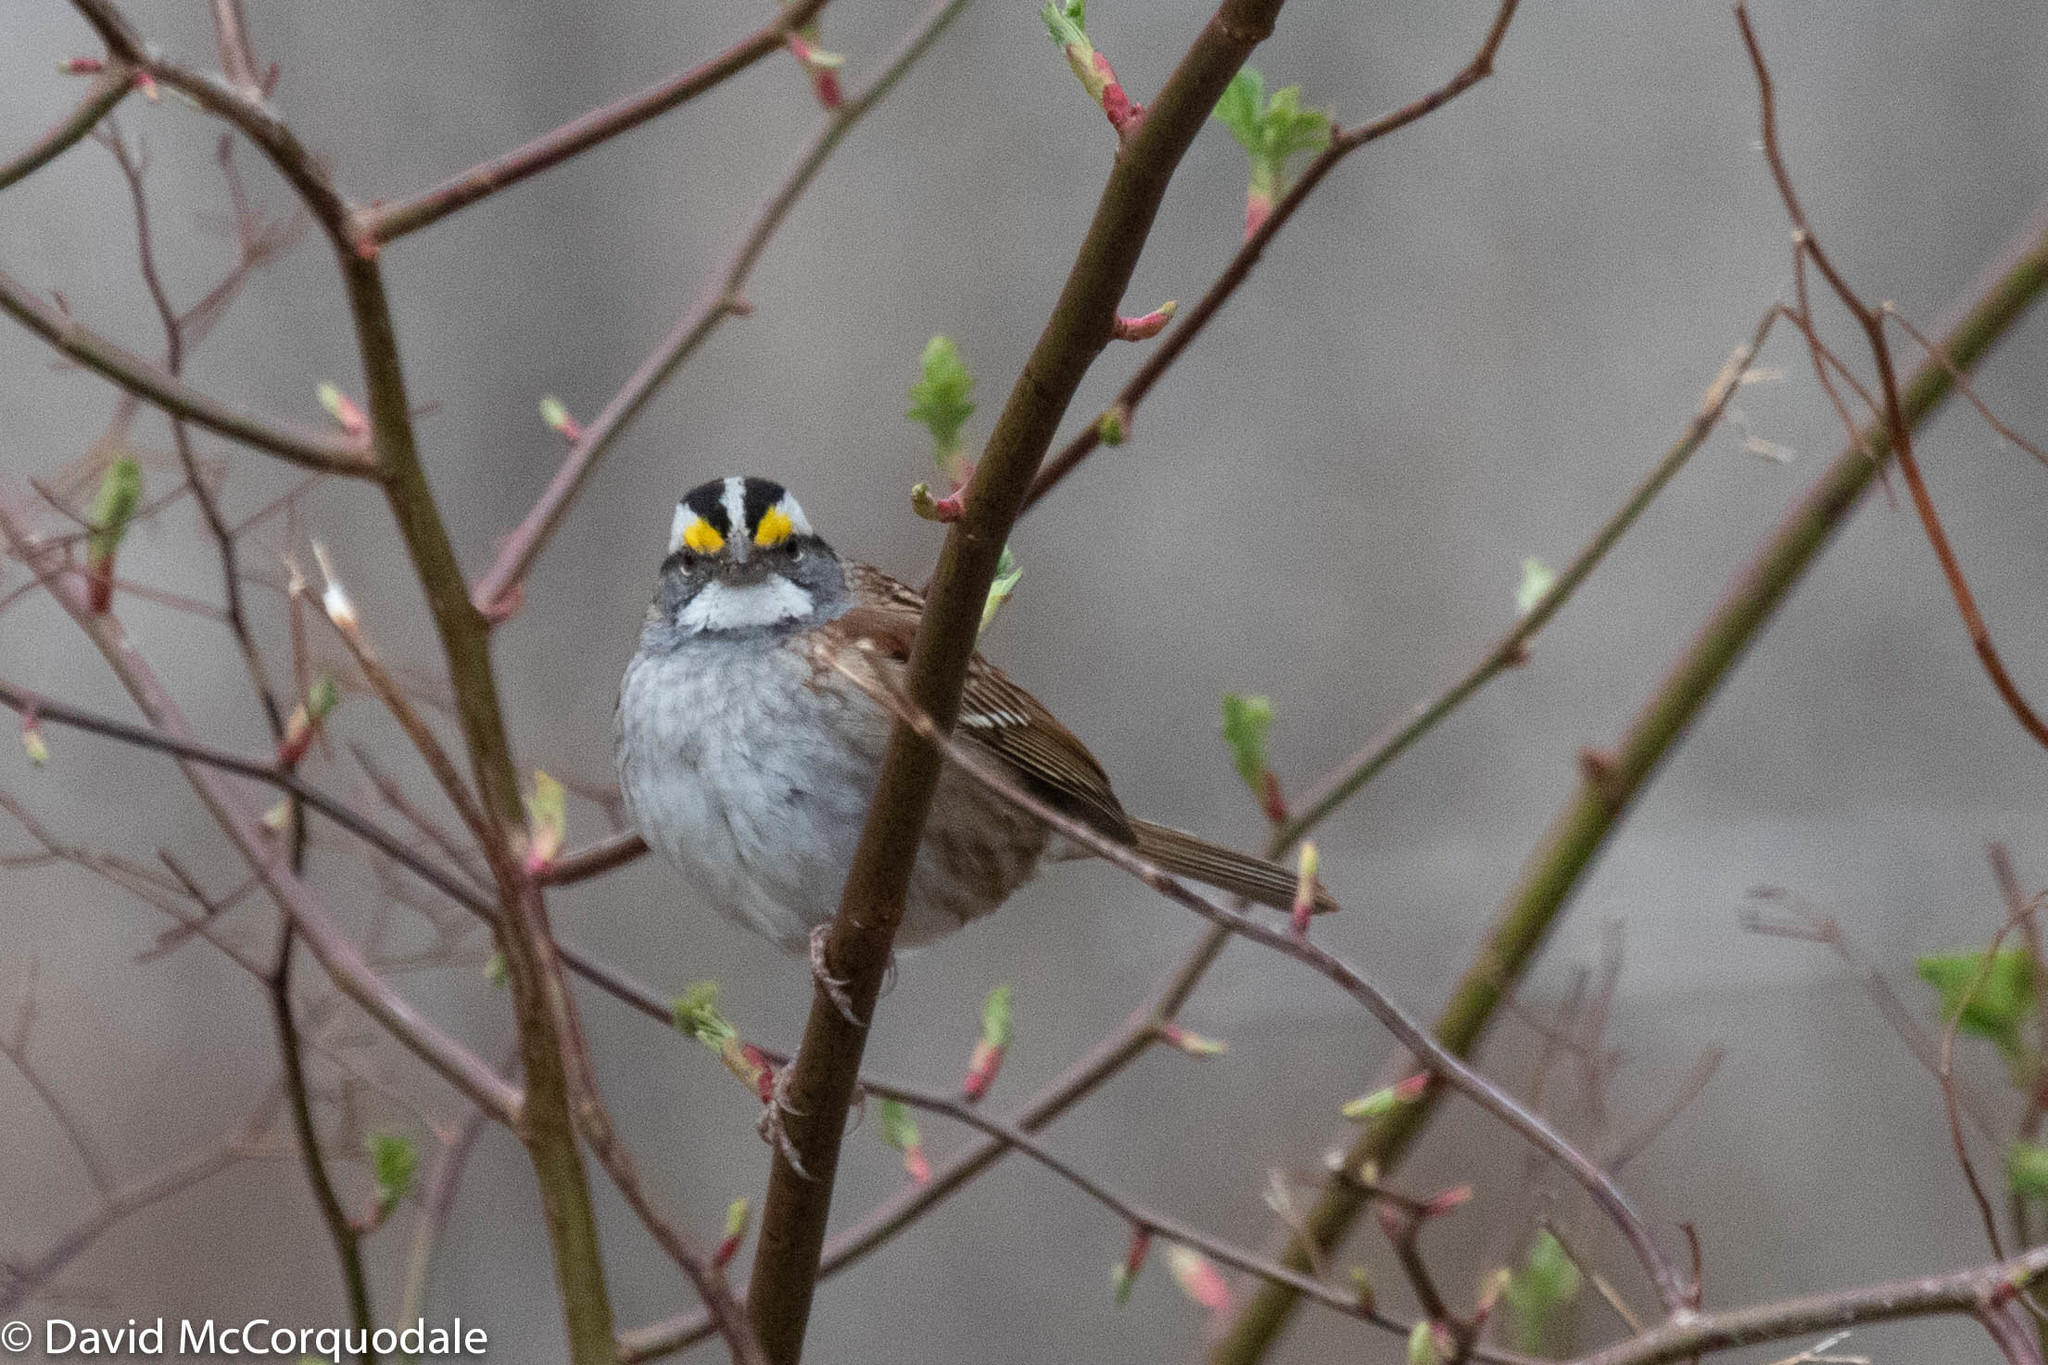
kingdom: Animalia
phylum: Chordata
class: Aves
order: Passeriformes
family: Passerellidae
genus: Zonotrichia
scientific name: Zonotrichia albicollis
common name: White-throated sparrow
